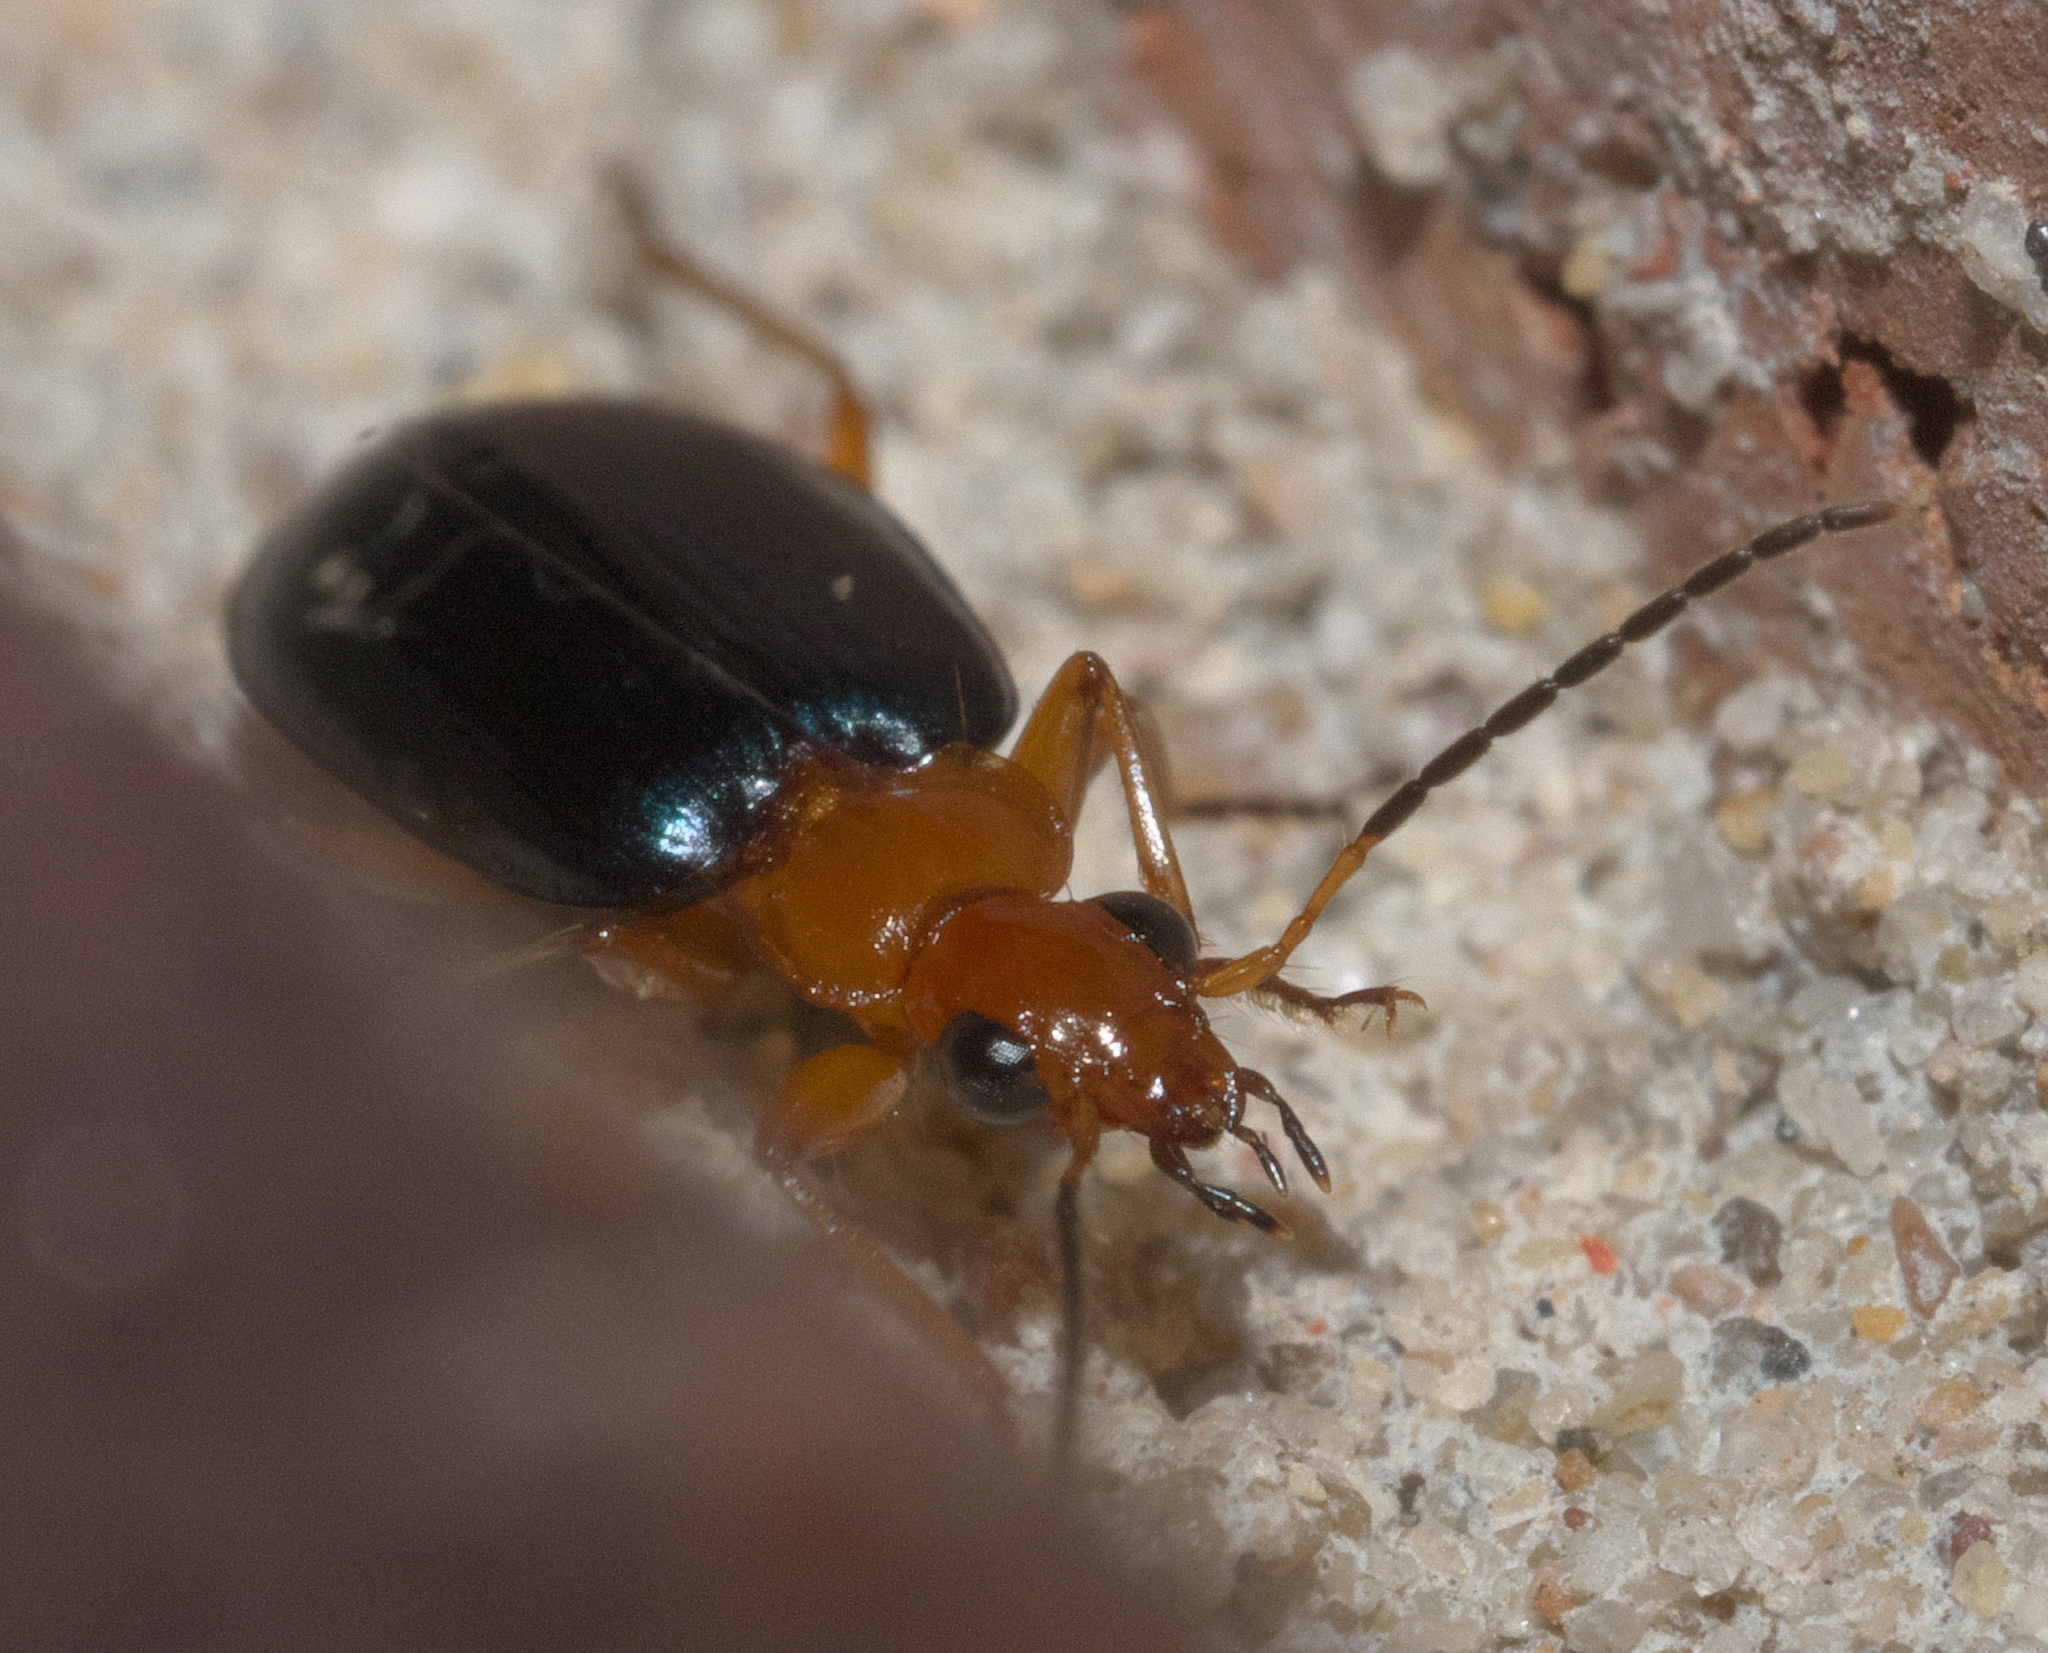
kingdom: Animalia
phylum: Arthropoda
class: Insecta
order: Coleoptera
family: Carabidae
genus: Lebia
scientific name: Lebia atriventris
